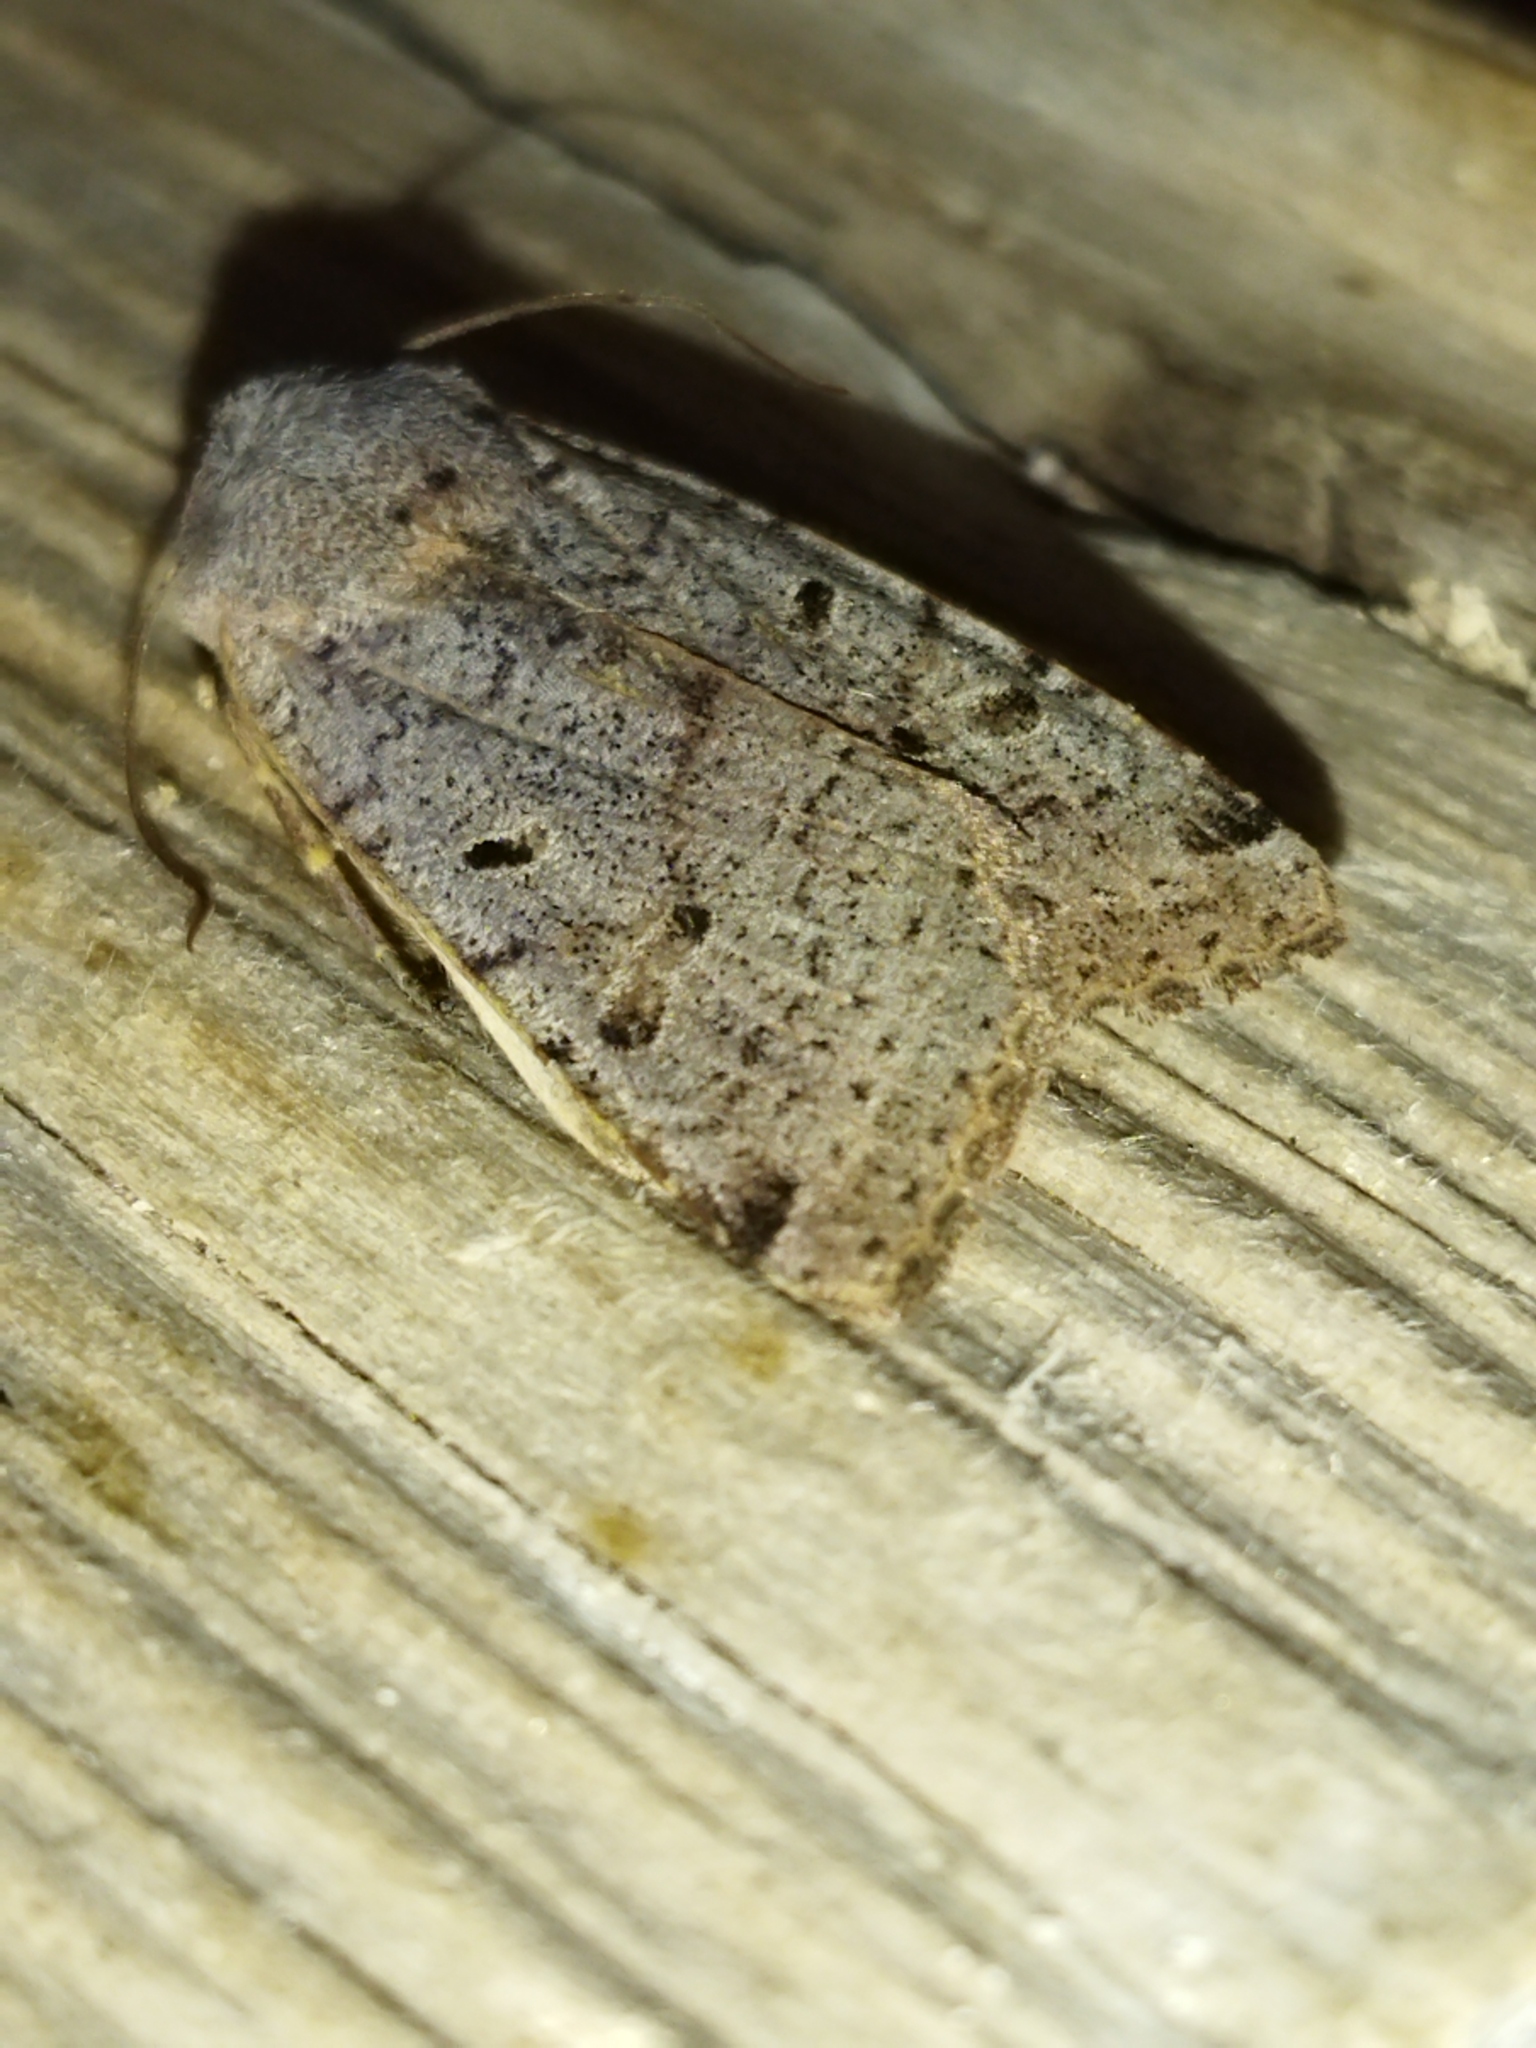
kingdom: Animalia
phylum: Arthropoda
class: Insecta
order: Lepidoptera
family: Noctuidae
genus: Agrochola
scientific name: Agrochola lychnidis
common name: Beaded chestnut
